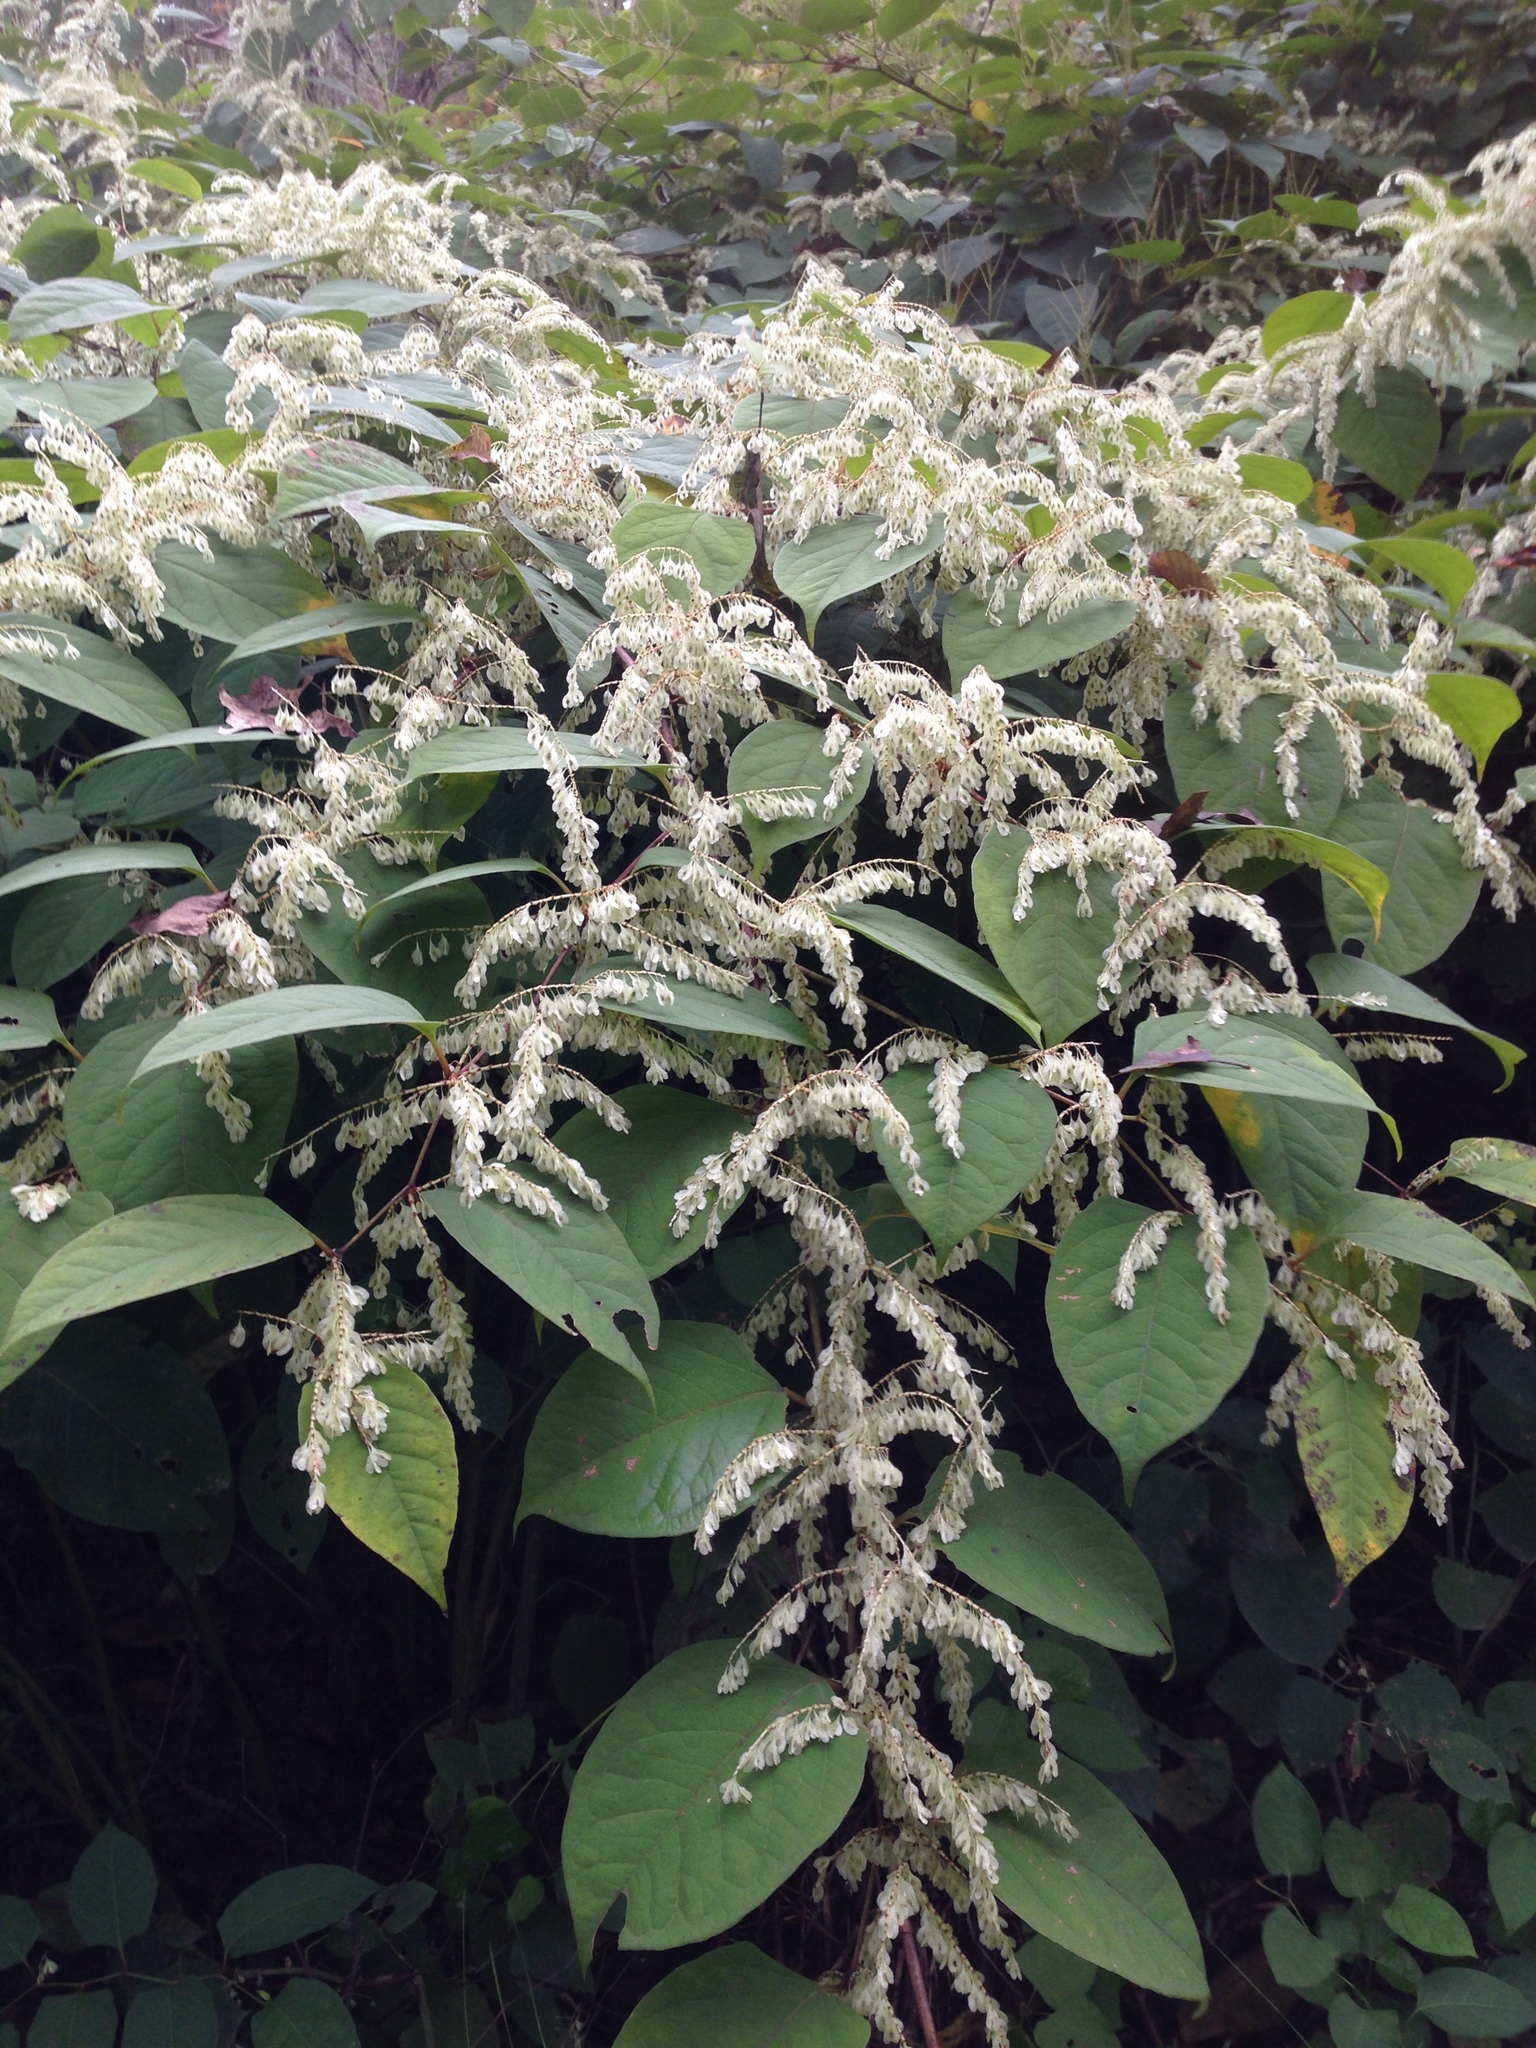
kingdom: Plantae
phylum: Tracheophyta
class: Magnoliopsida
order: Caryophyllales
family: Polygonaceae
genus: Reynoutria
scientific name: Reynoutria japonica
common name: Japanese knotweed
